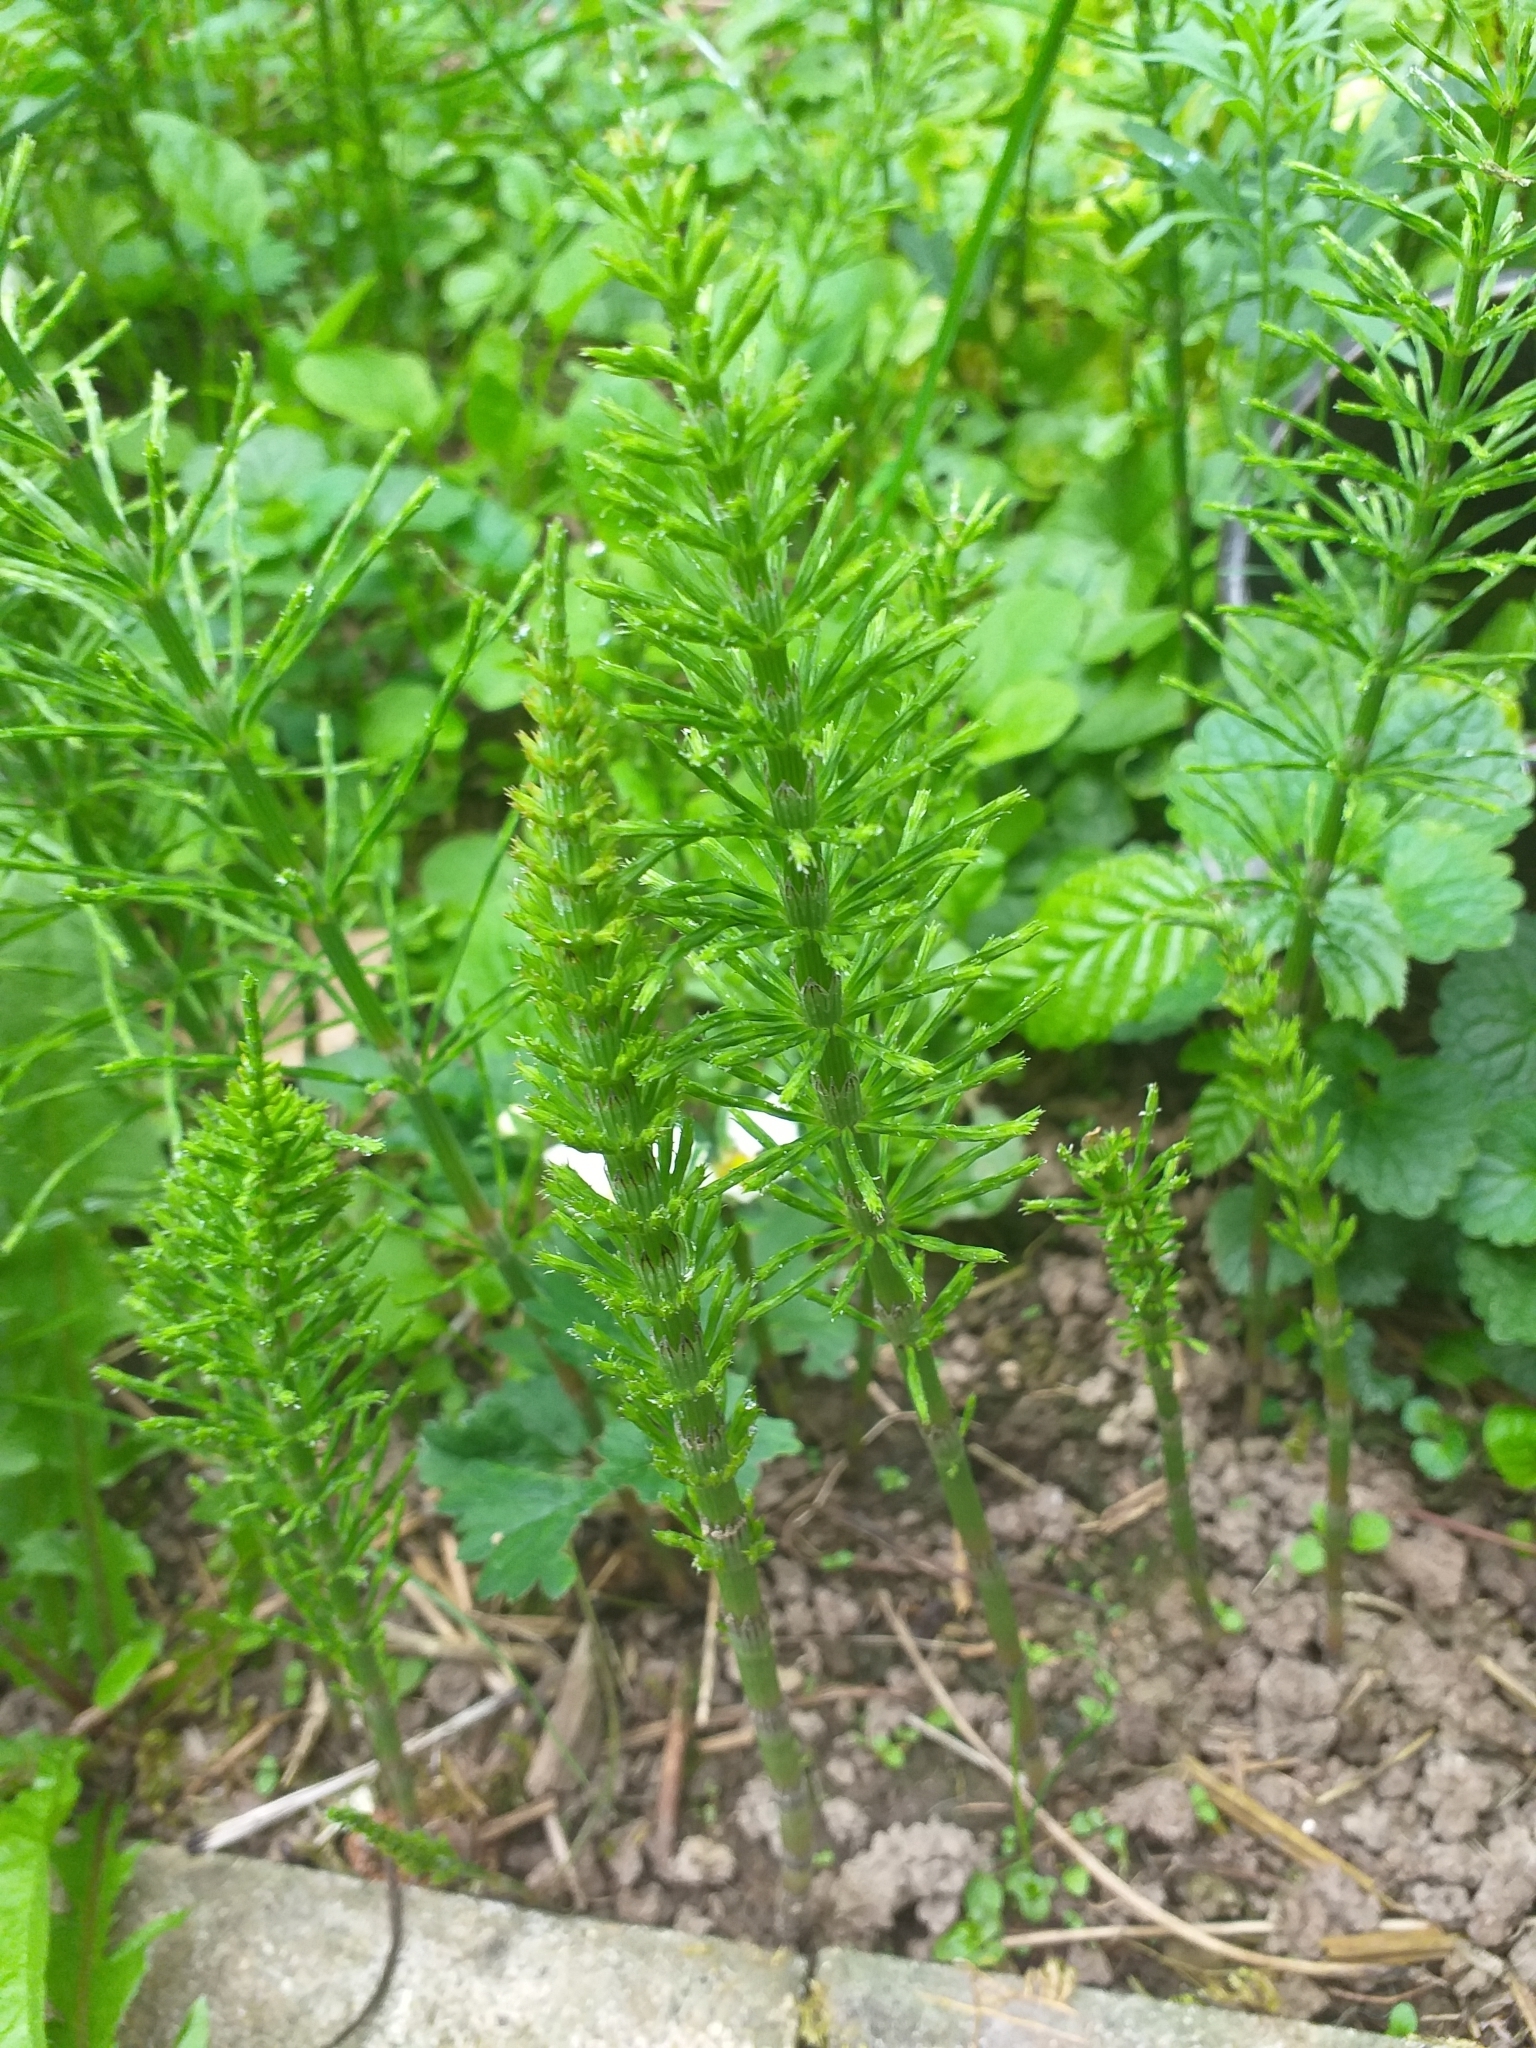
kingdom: Plantae
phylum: Tracheophyta
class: Polypodiopsida
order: Equisetales
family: Equisetaceae
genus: Equisetum
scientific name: Equisetum arvense
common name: Field horsetail
